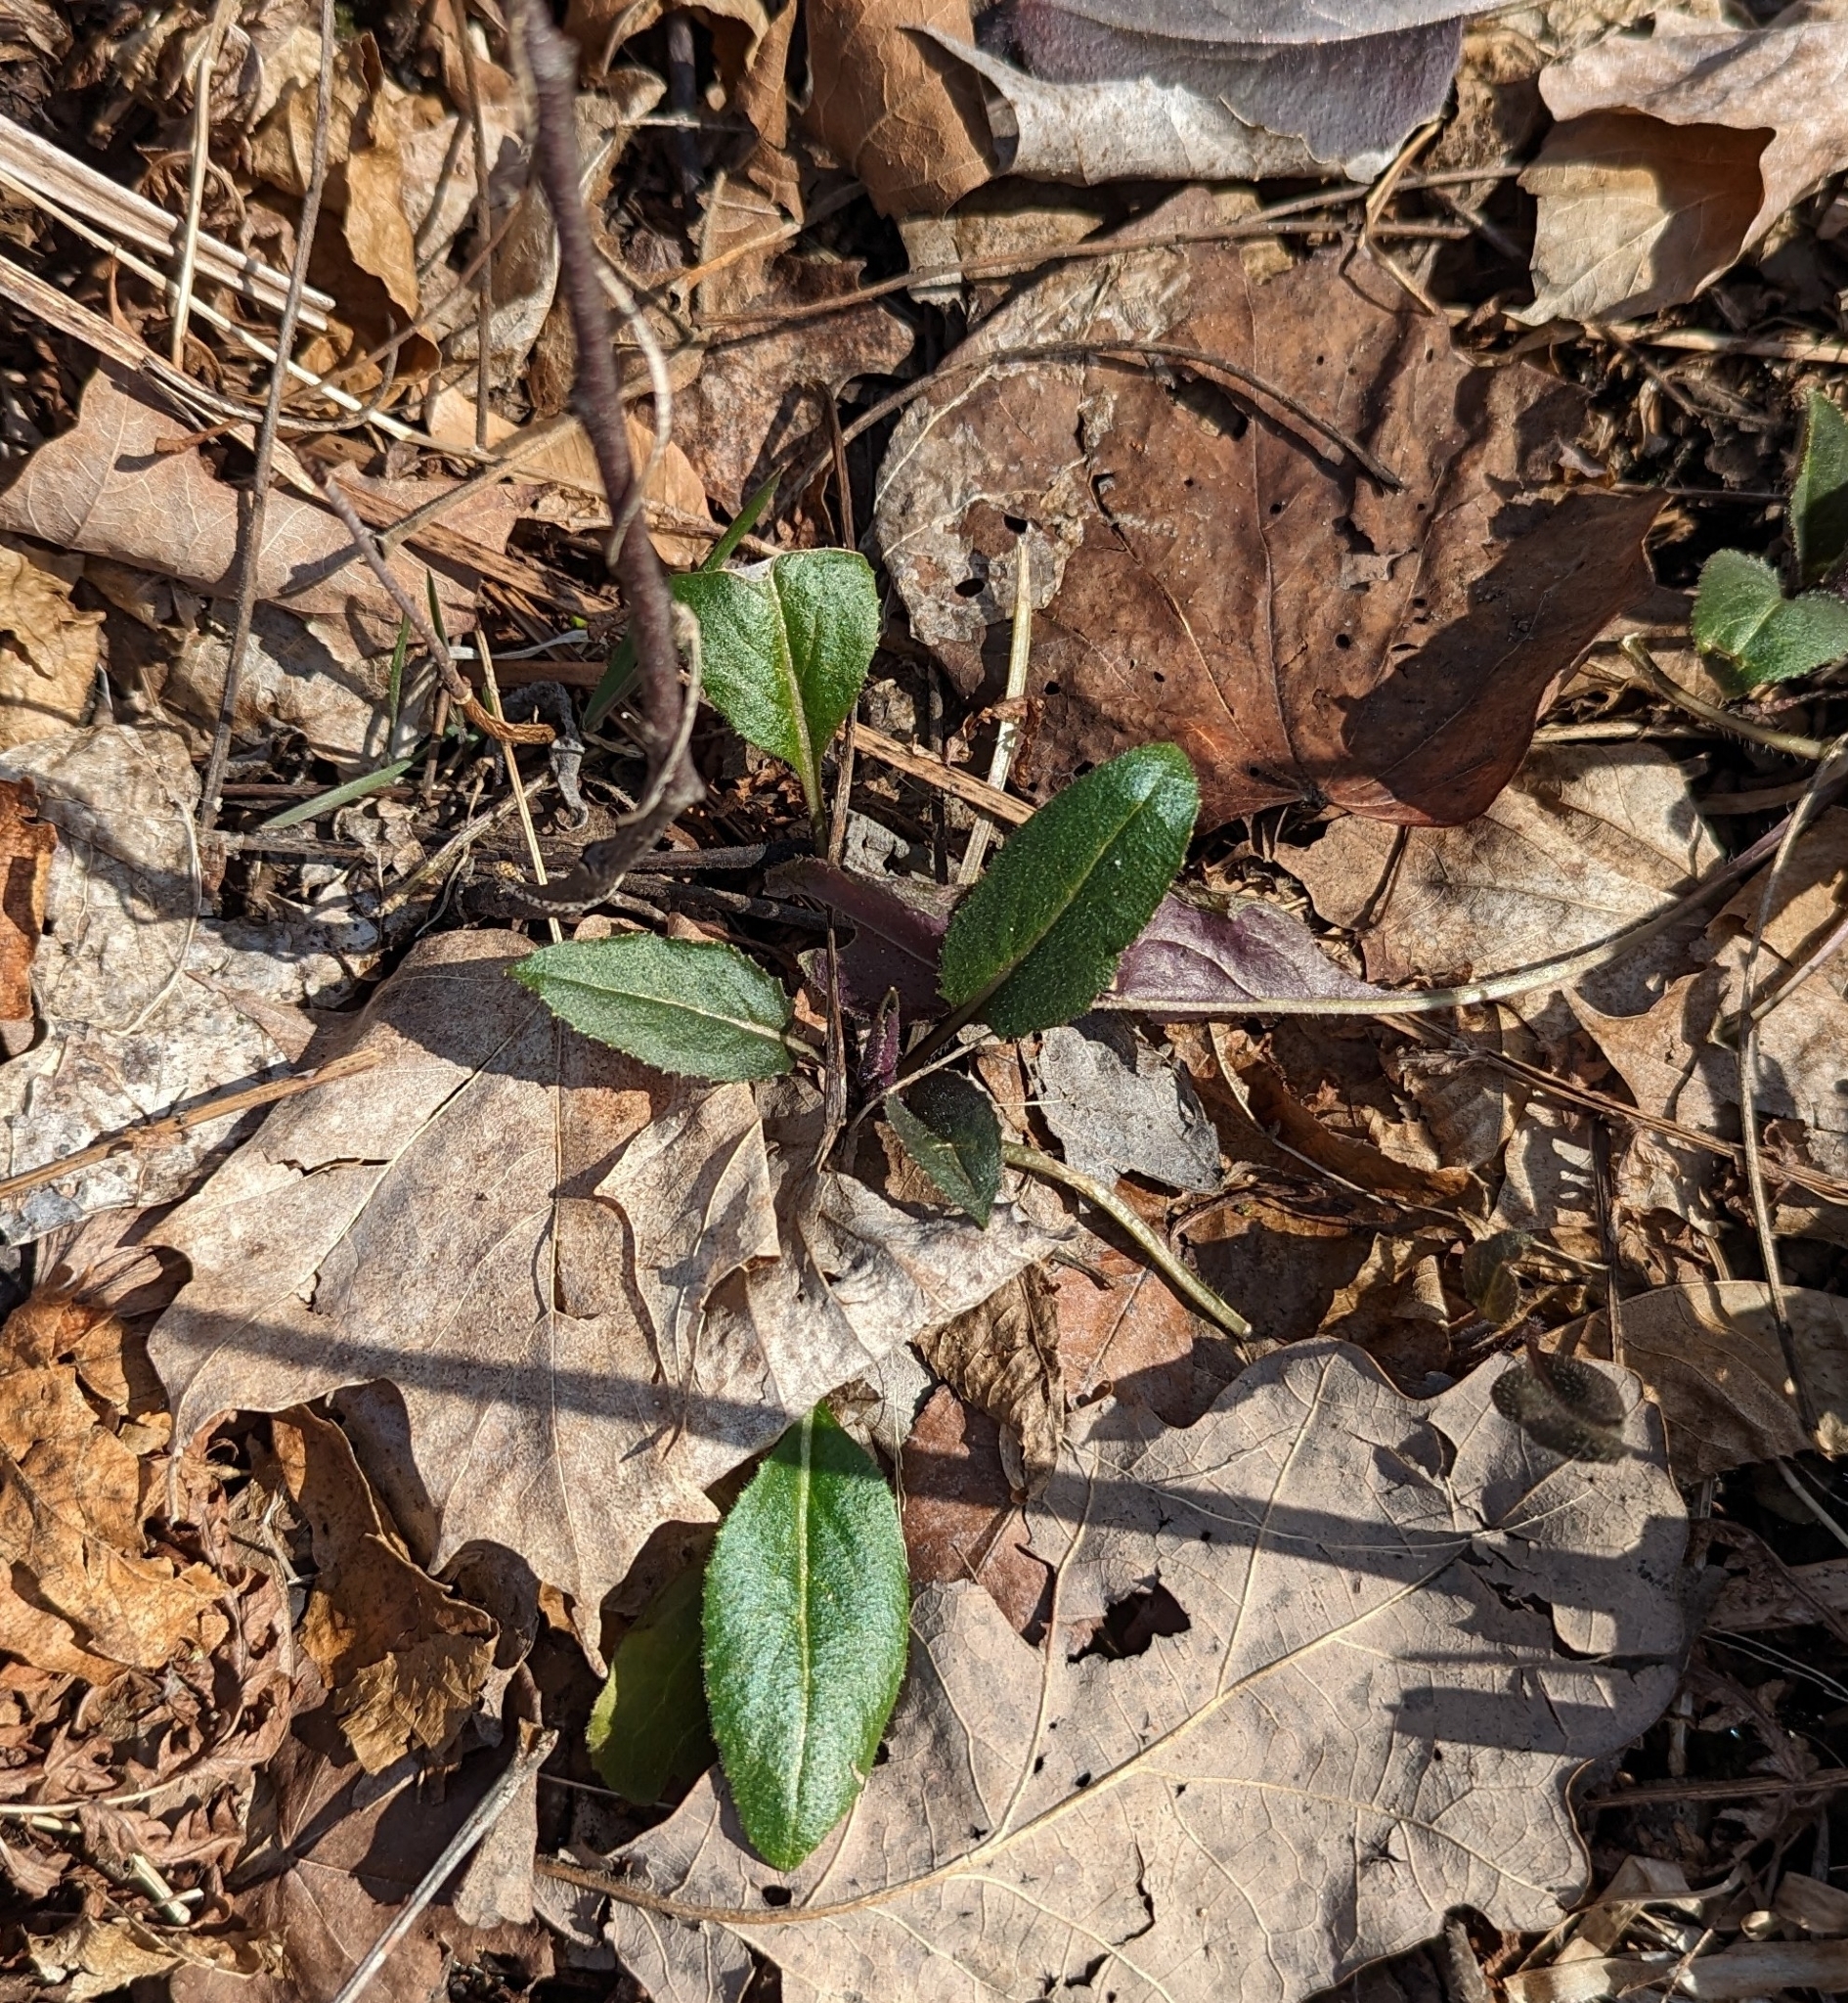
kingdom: Plantae
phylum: Tracheophyta
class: Magnoliopsida
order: Brassicales
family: Brassicaceae
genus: Hesperis
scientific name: Hesperis matronalis
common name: Dame's-violet
